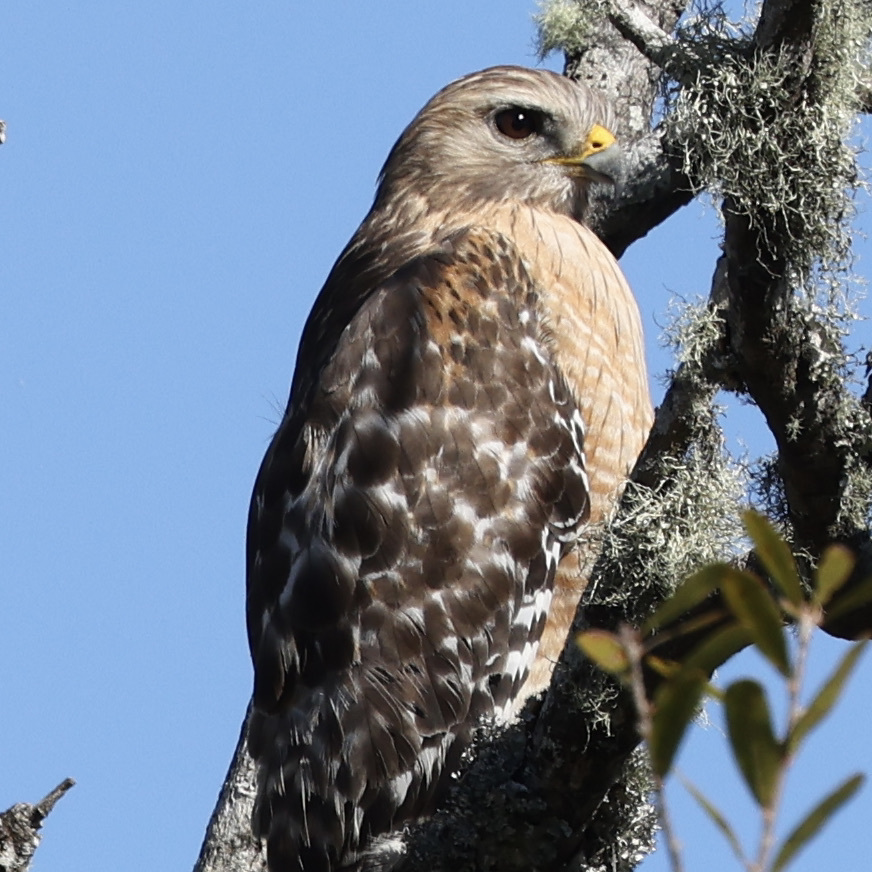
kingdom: Animalia
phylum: Chordata
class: Aves
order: Accipitriformes
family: Accipitridae
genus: Buteo
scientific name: Buteo lineatus
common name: Red-shouldered hawk
